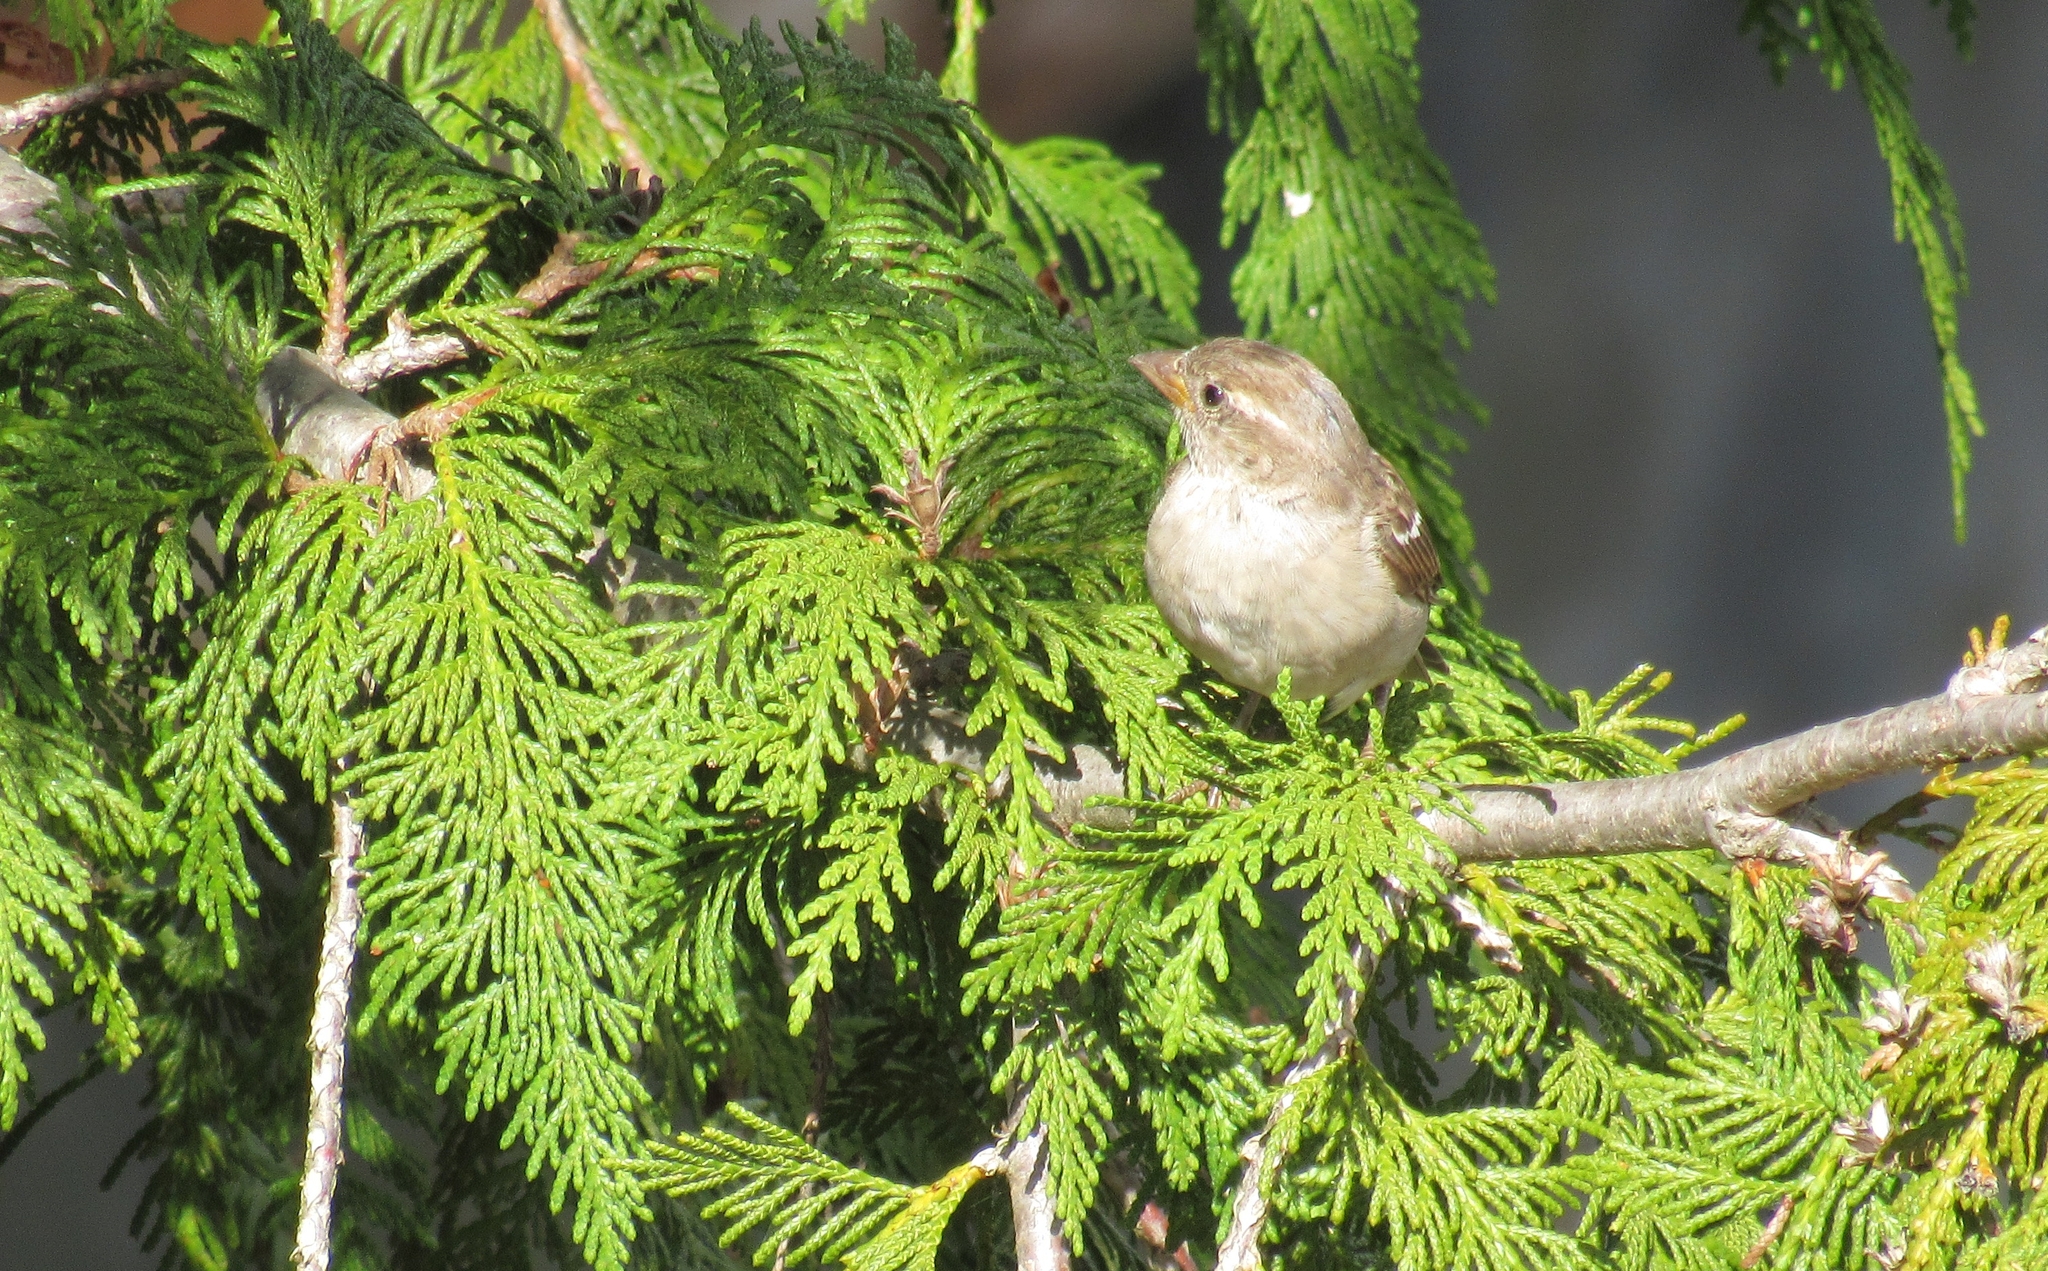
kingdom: Animalia
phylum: Chordata
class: Aves
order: Passeriformes
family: Passeridae
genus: Passer
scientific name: Passer domesticus
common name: House sparrow
